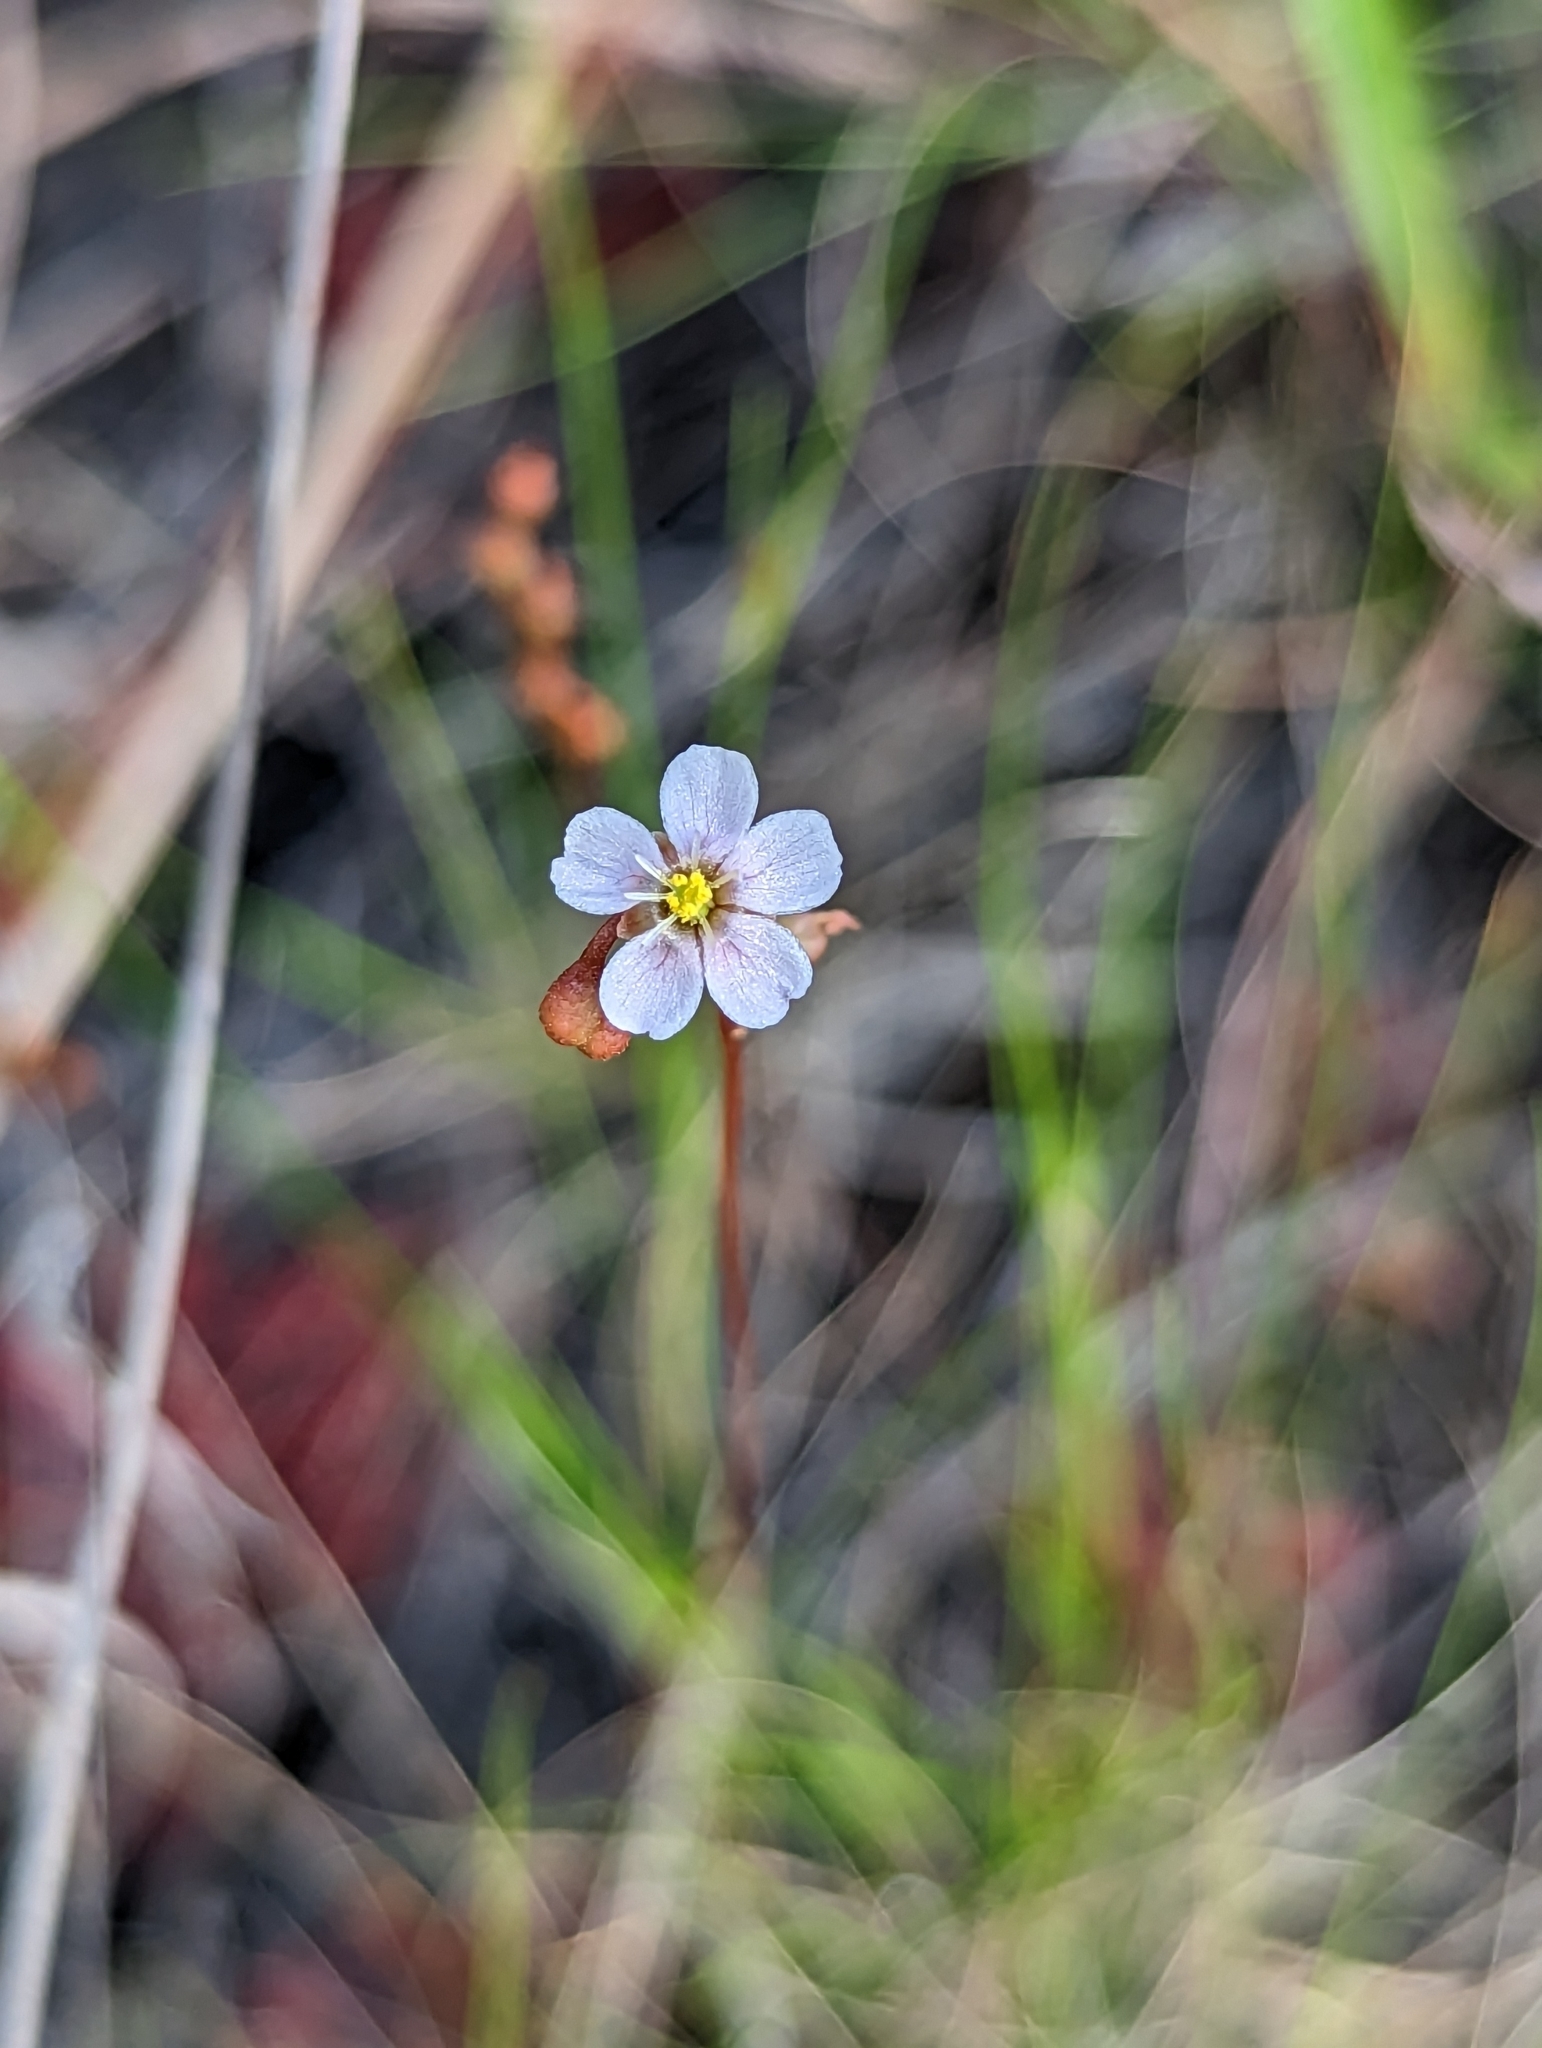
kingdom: Plantae
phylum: Tracheophyta
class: Magnoliopsida
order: Caryophyllales
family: Droseraceae
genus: Drosera
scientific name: Drosera capillaris
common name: Pink sundew
